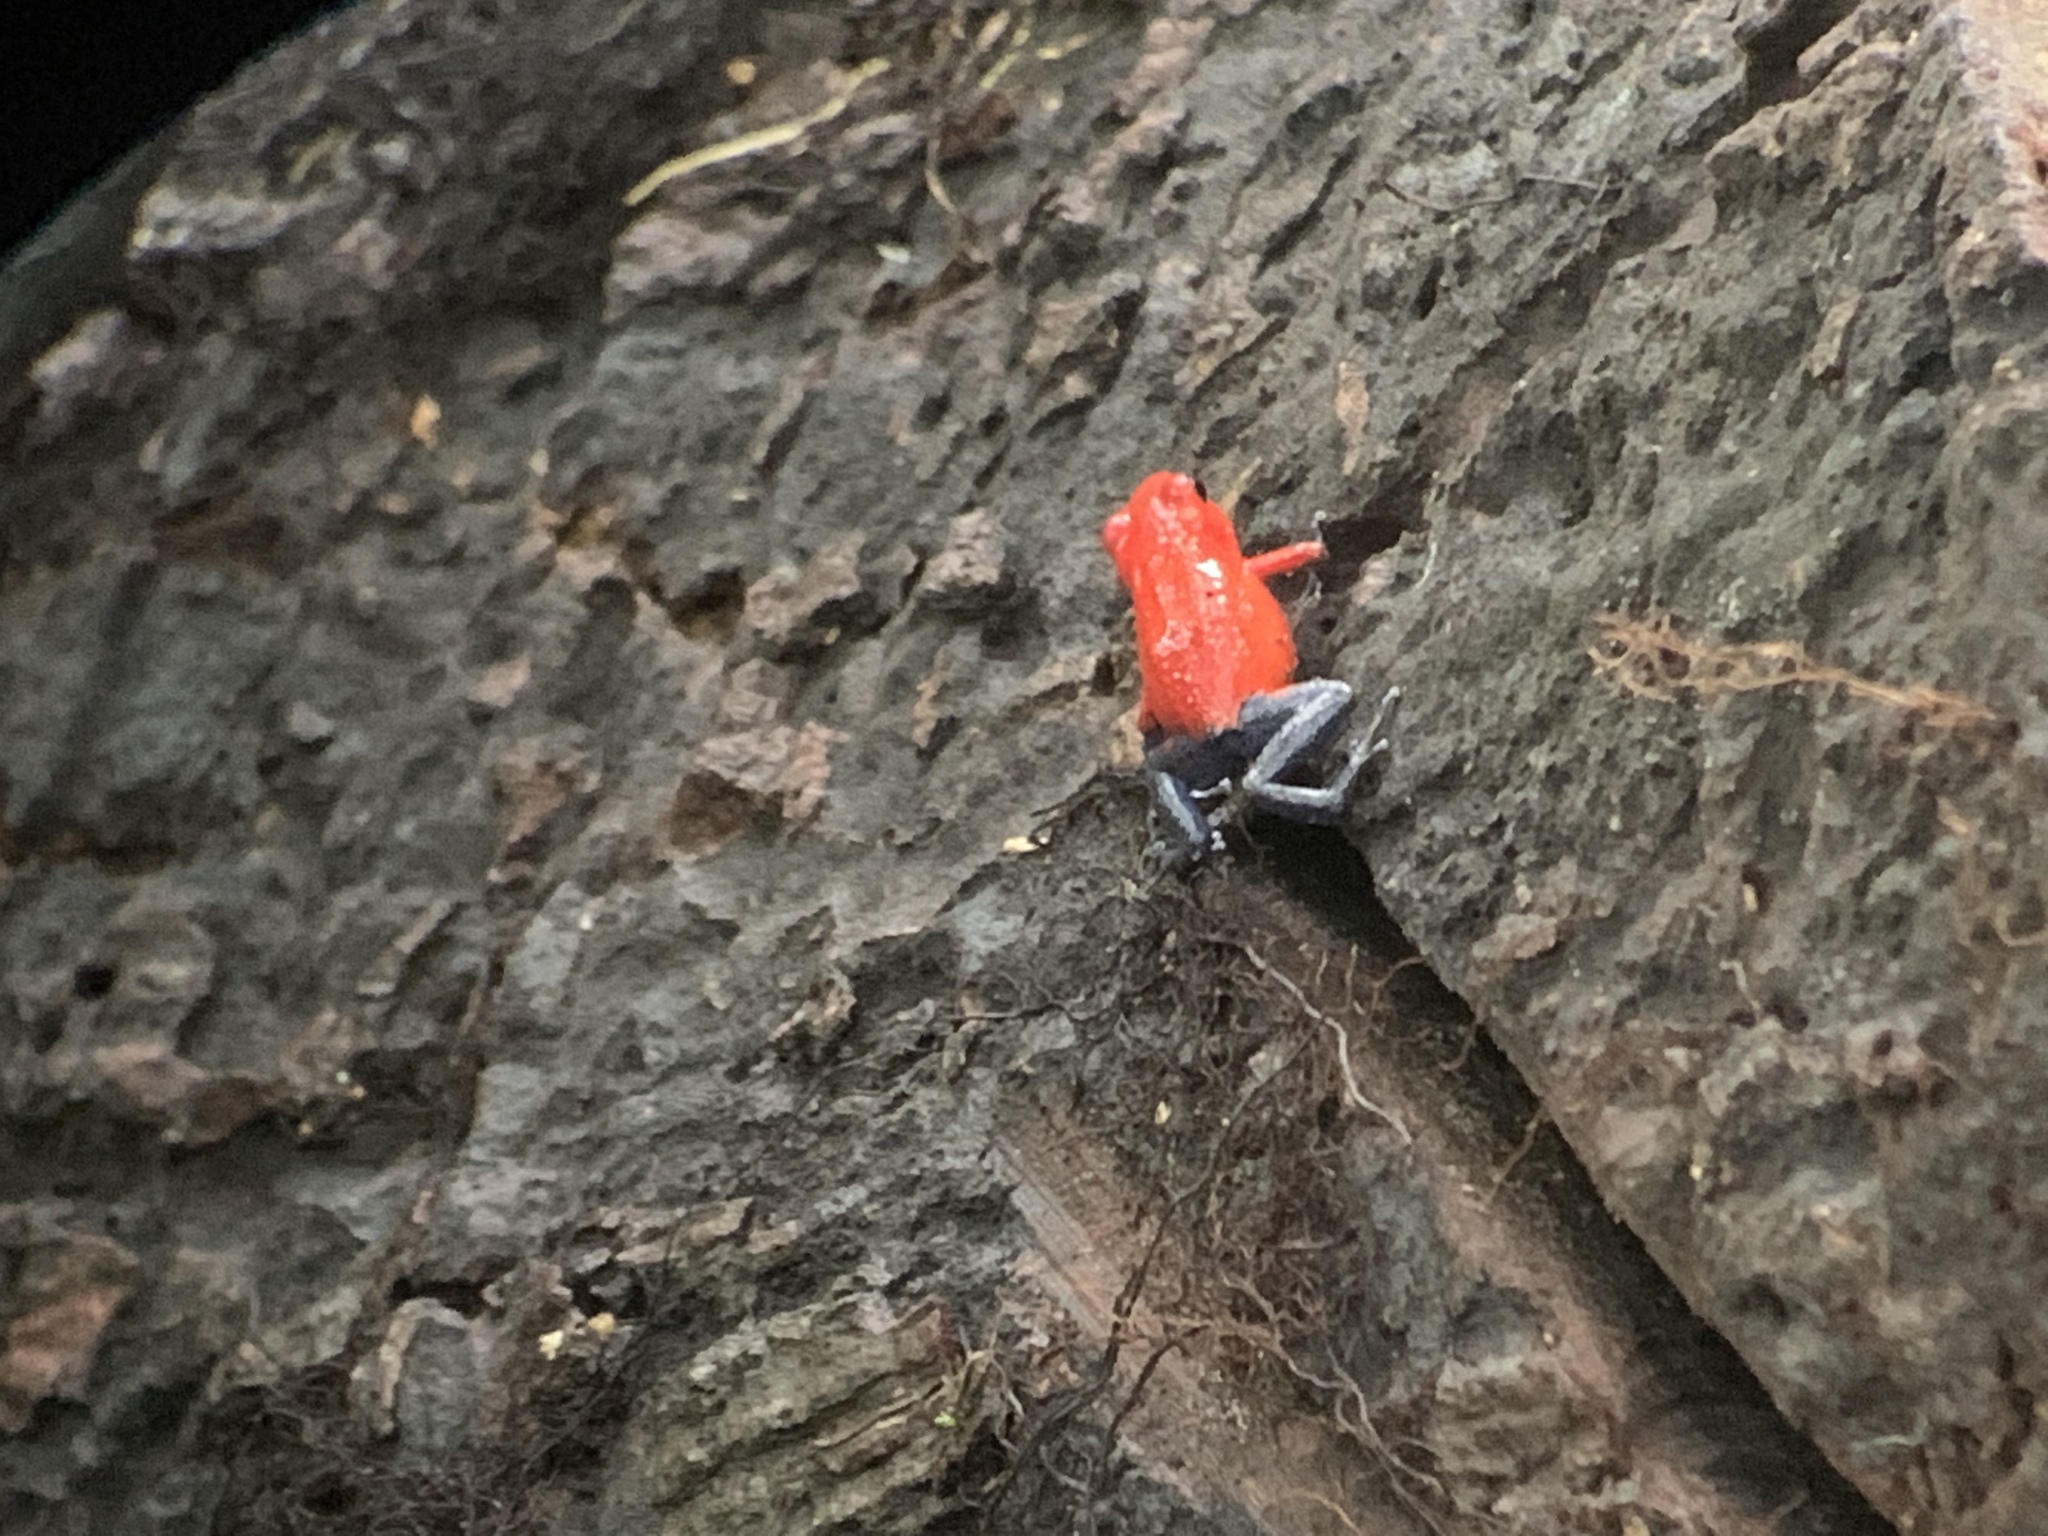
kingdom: Animalia
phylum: Chordata
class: Amphibia
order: Anura
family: Dendrobatidae
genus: Oophaga
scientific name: Oophaga pumilio
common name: Flaming poison frog
